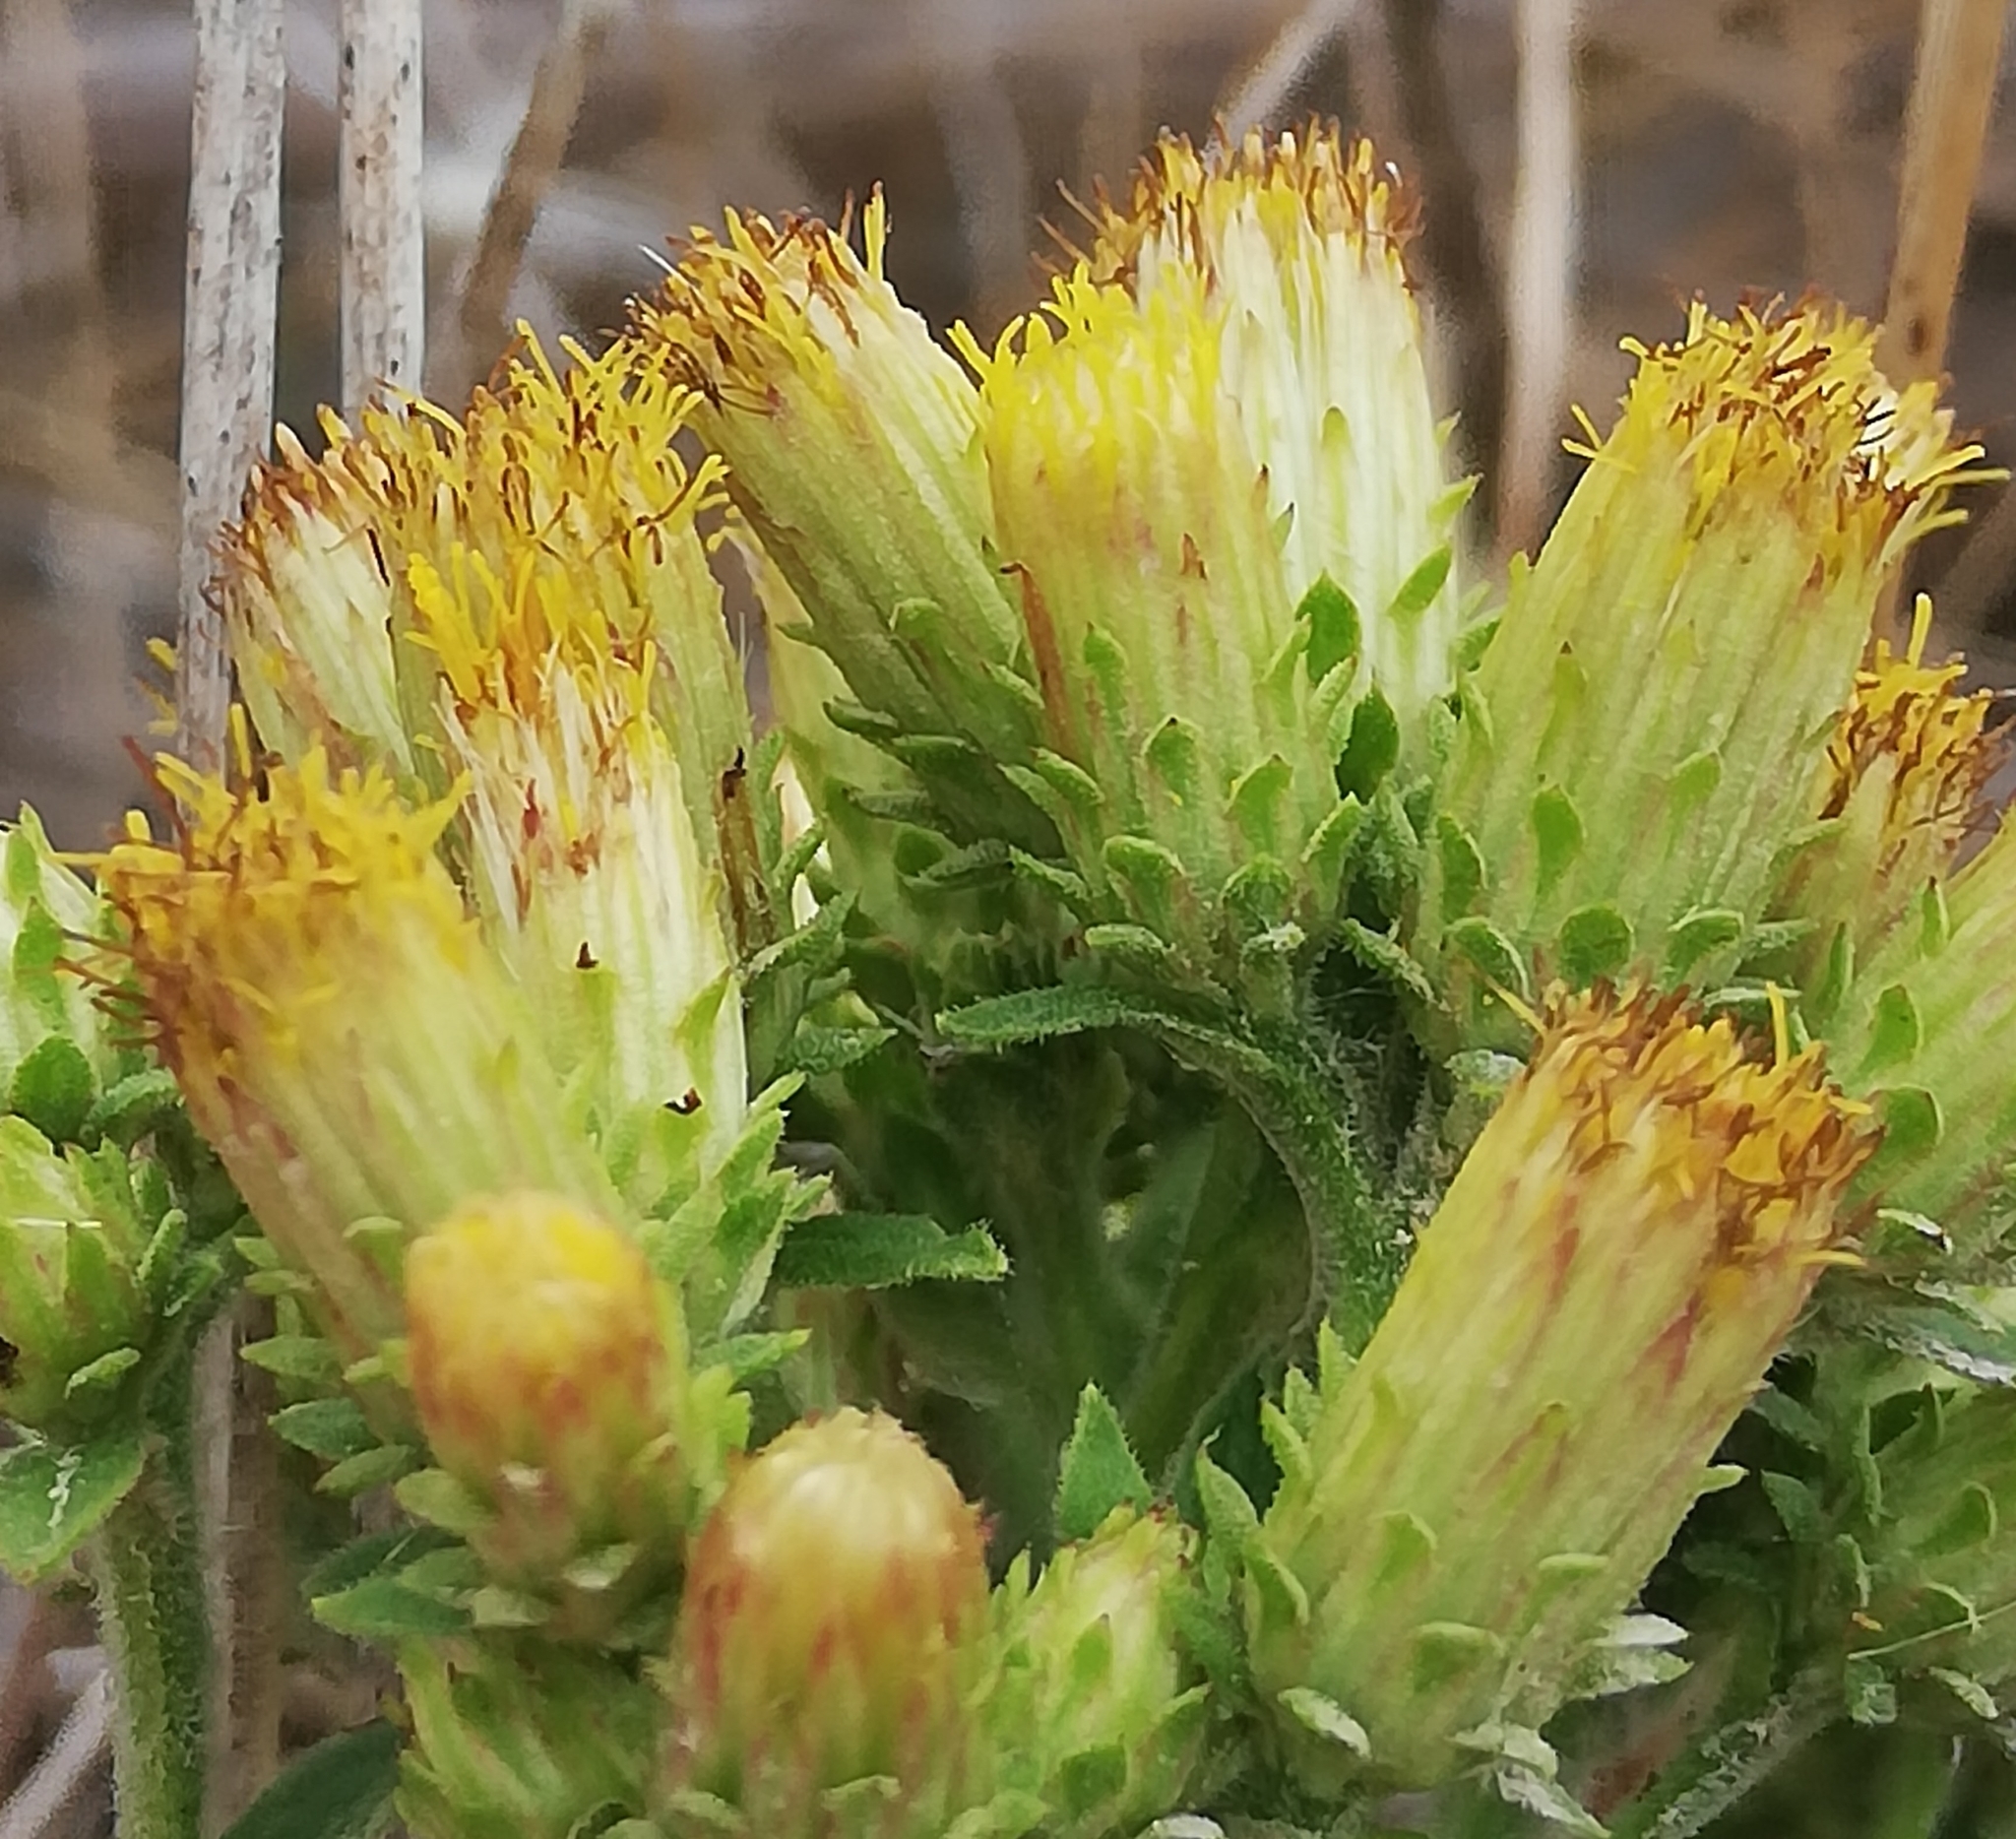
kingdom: Plantae
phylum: Tracheophyta
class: Magnoliopsida
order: Asterales
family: Asteraceae
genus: Pentanema
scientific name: Pentanema squarrosum
